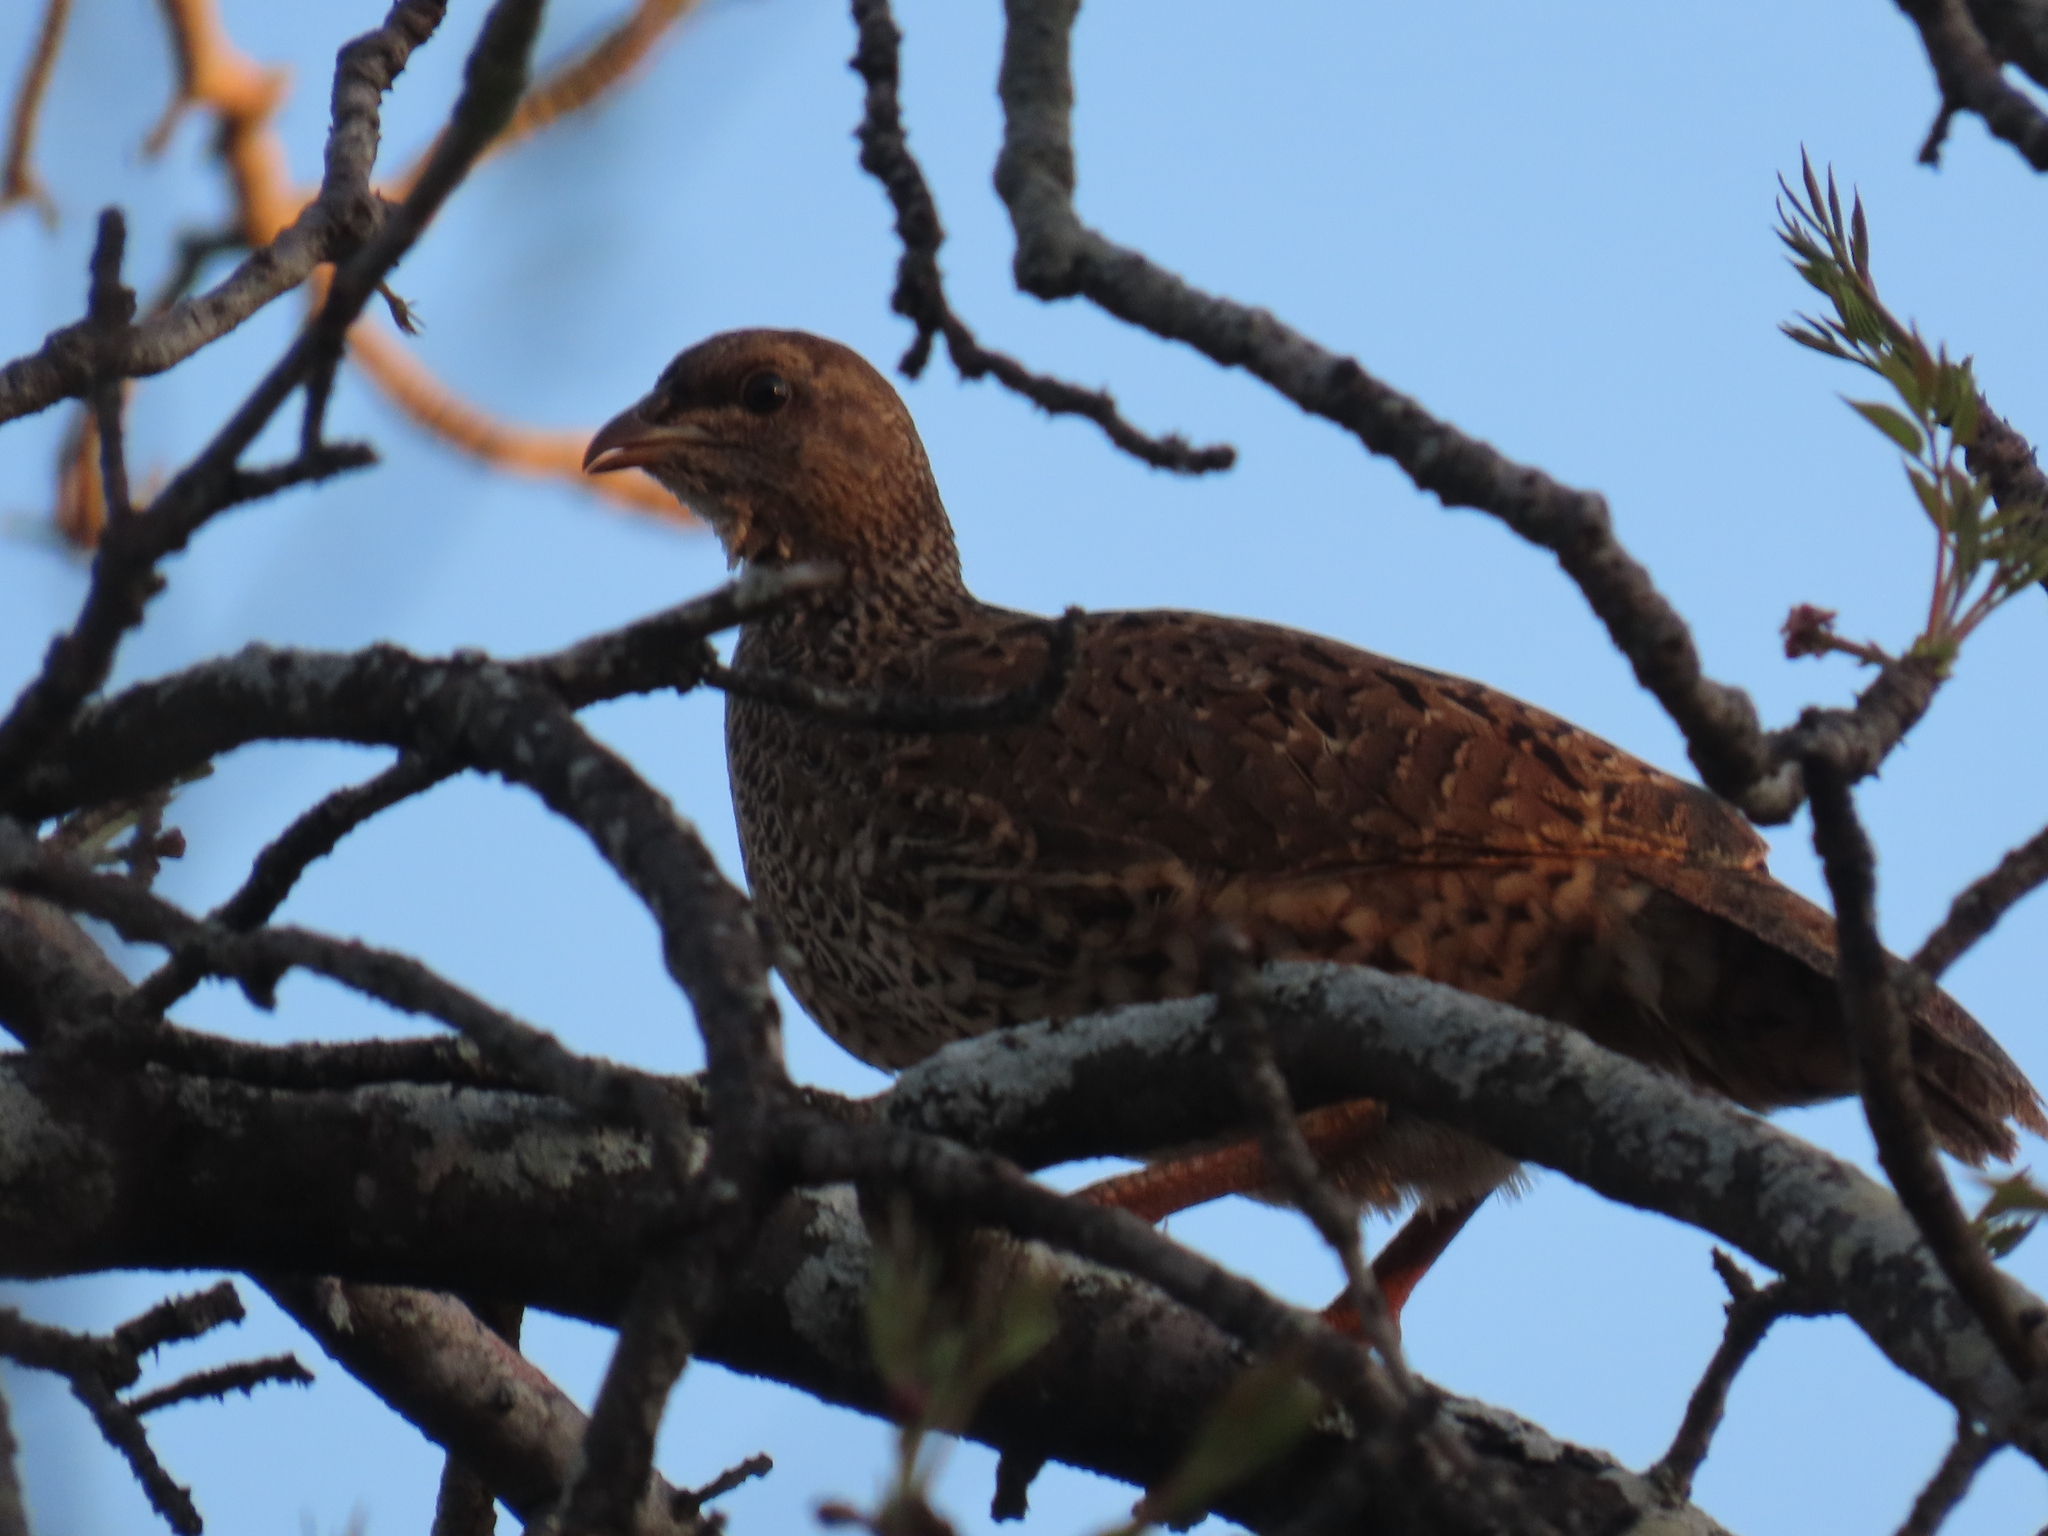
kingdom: Animalia
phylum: Chordata
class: Aves
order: Galliformes
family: Phasianidae
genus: Pternistis
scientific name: Pternistis natalensis
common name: Natal spurfowl
